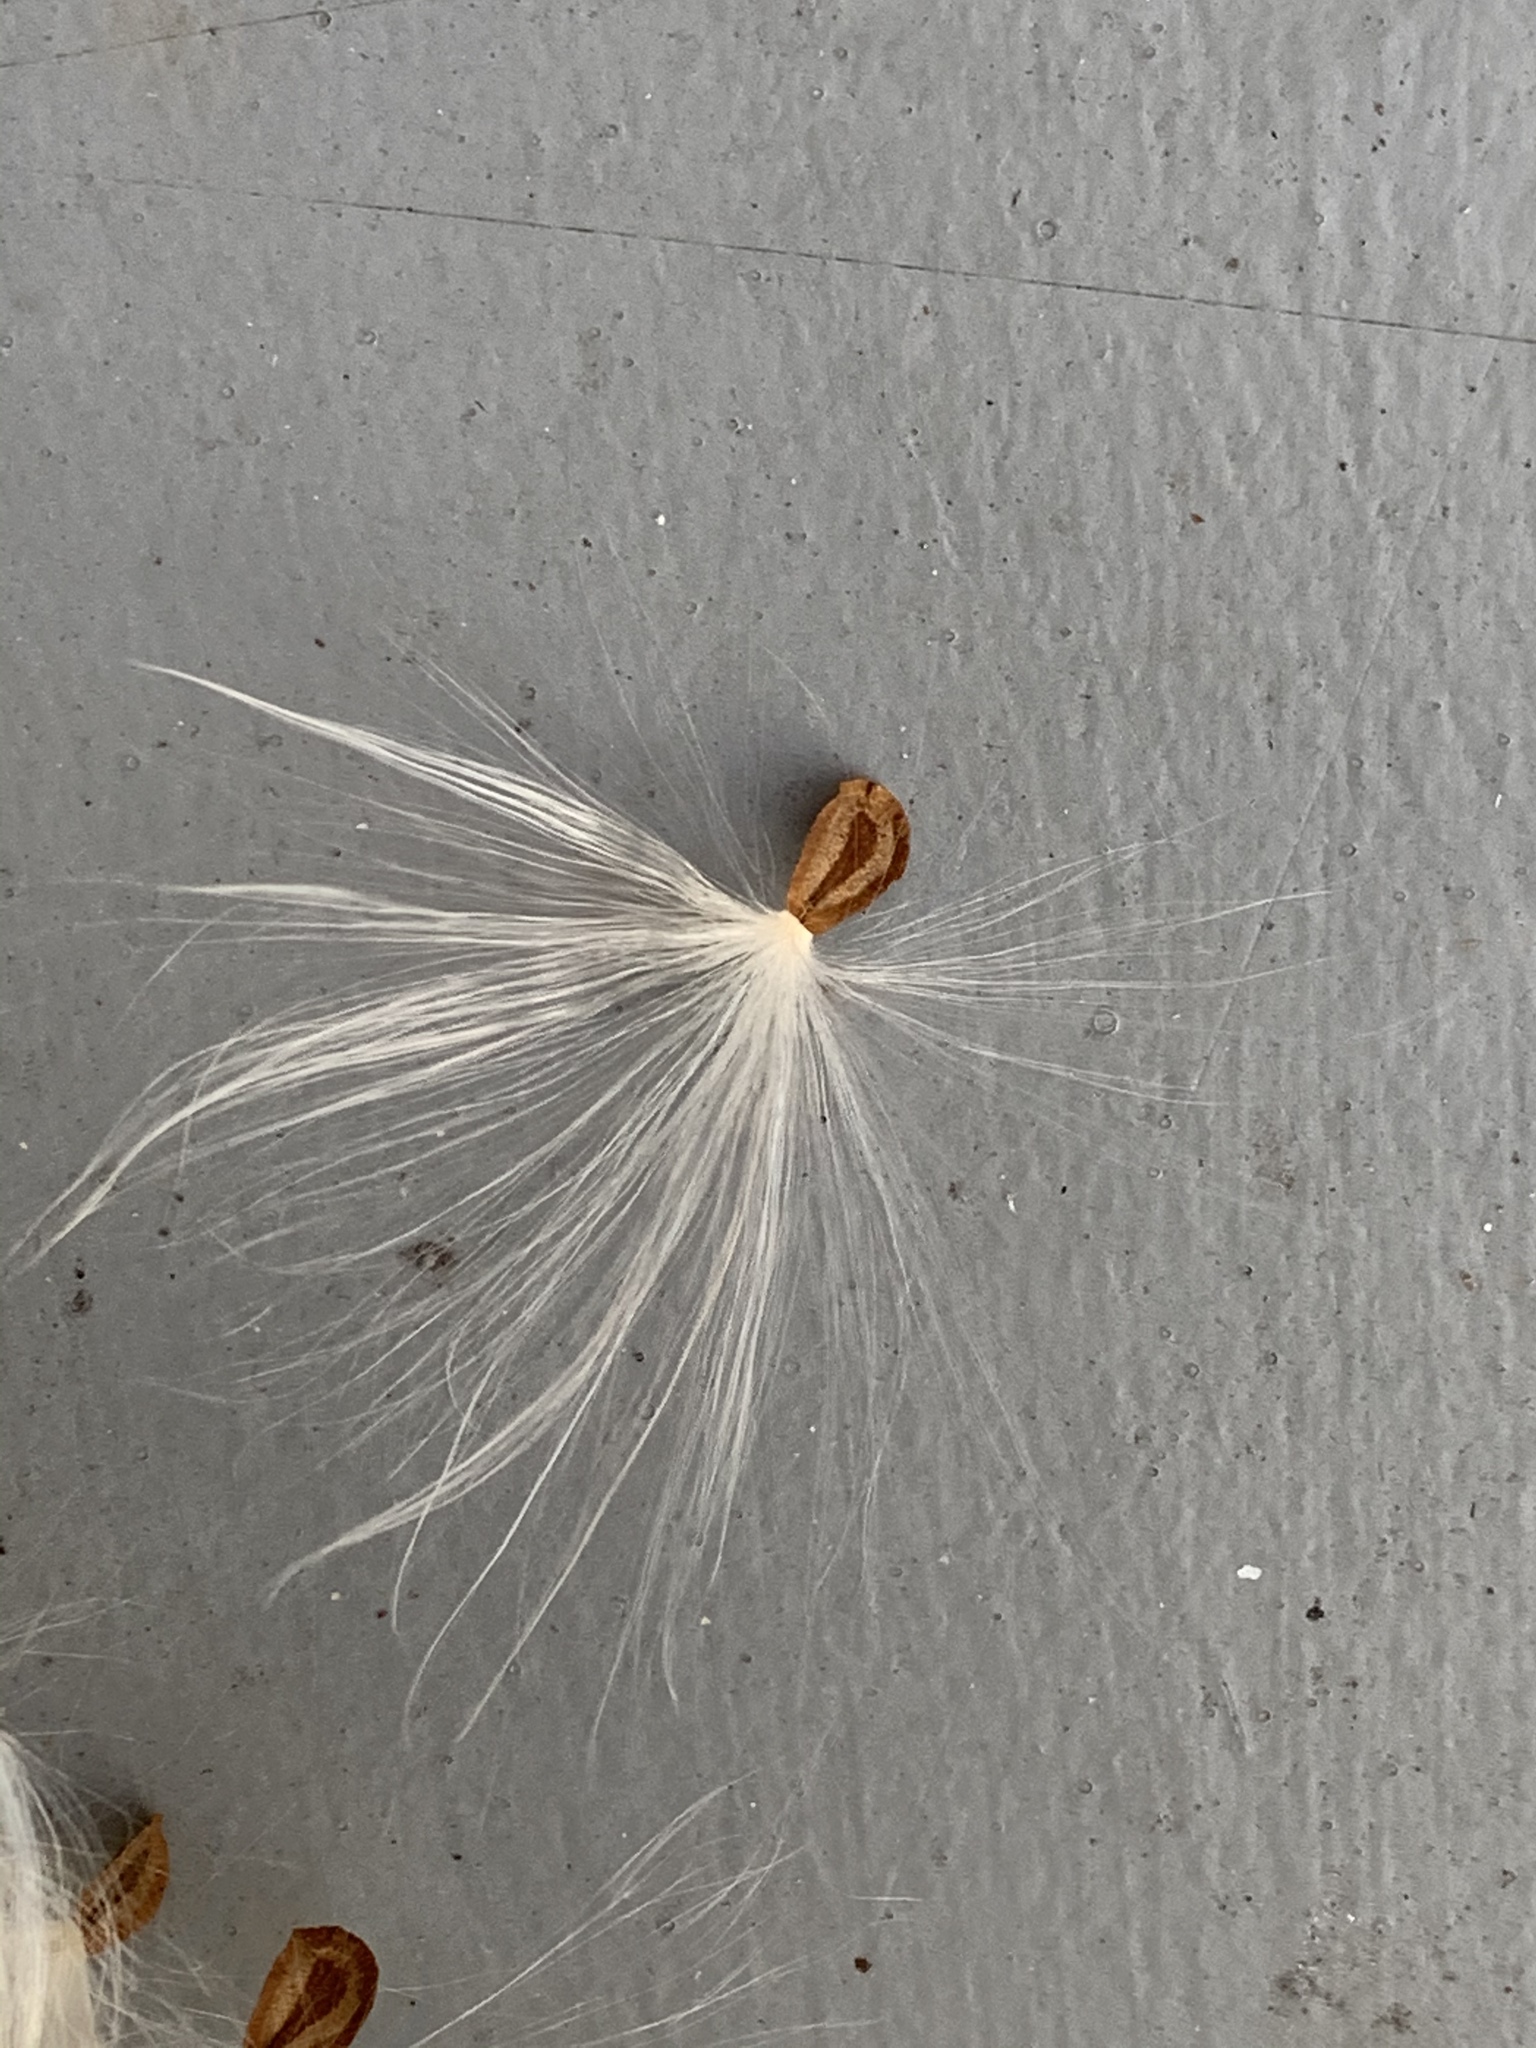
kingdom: Plantae
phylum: Tracheophyta
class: Magnoliopsida
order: Gentianales
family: Apocynaceae
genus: Asclepias
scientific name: Asclepias syriaca
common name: Common milkweed
